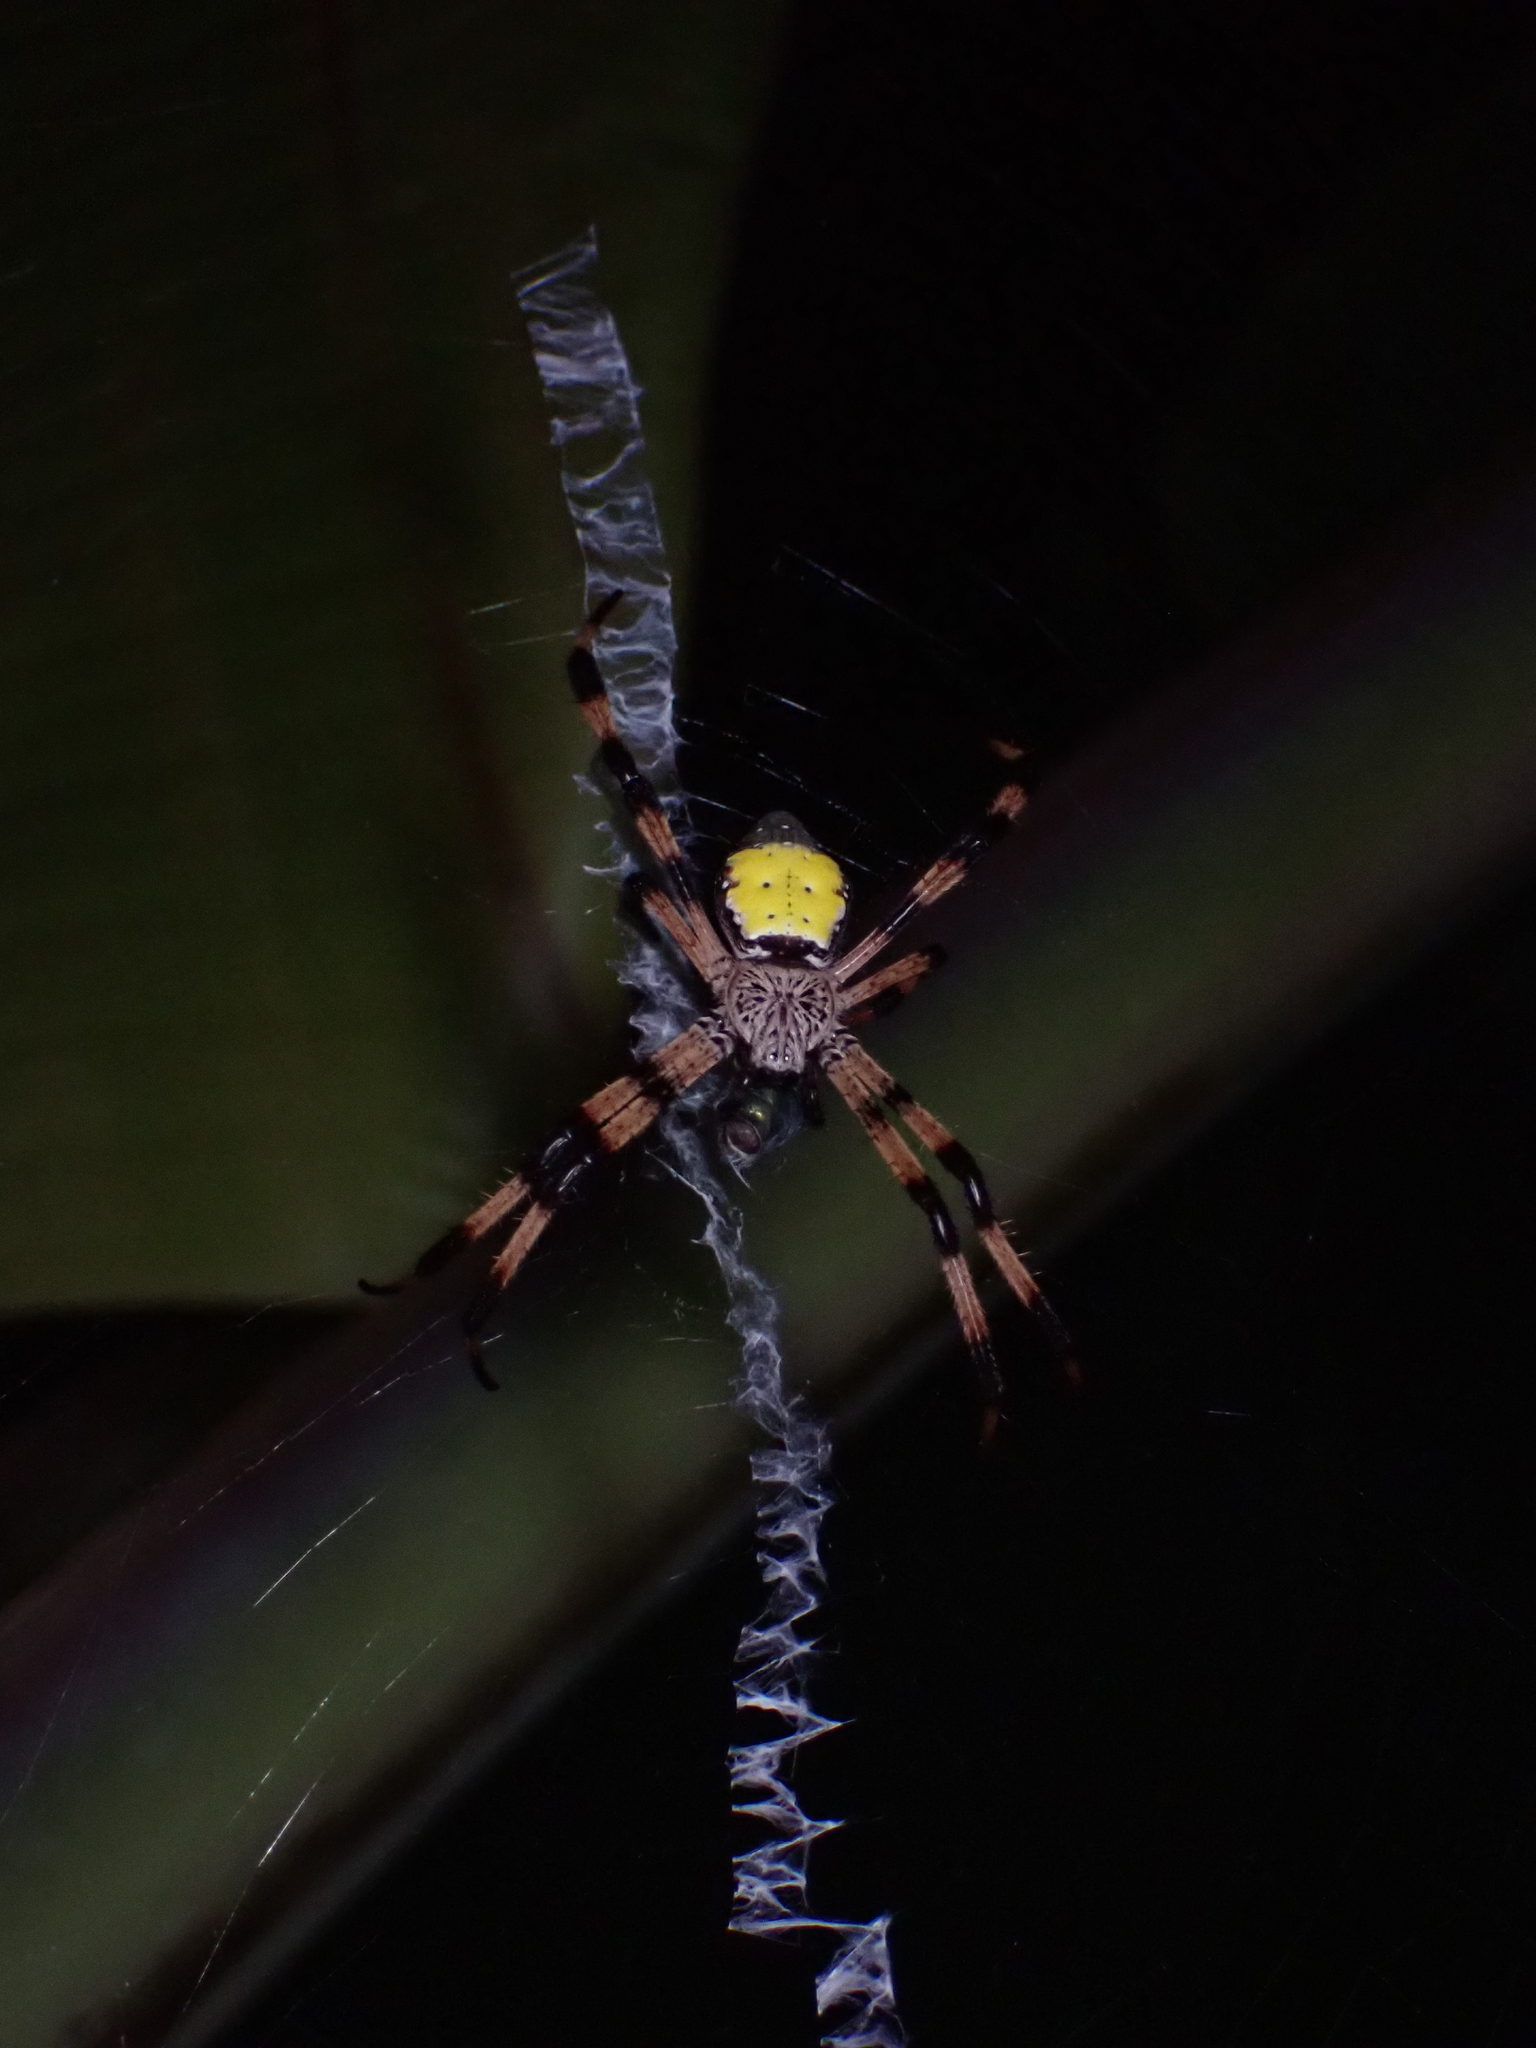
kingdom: Animalia
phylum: Arthropoda
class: Arachnida
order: Araneae
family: Araneidae
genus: Argiope
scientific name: Argiope aetherea
